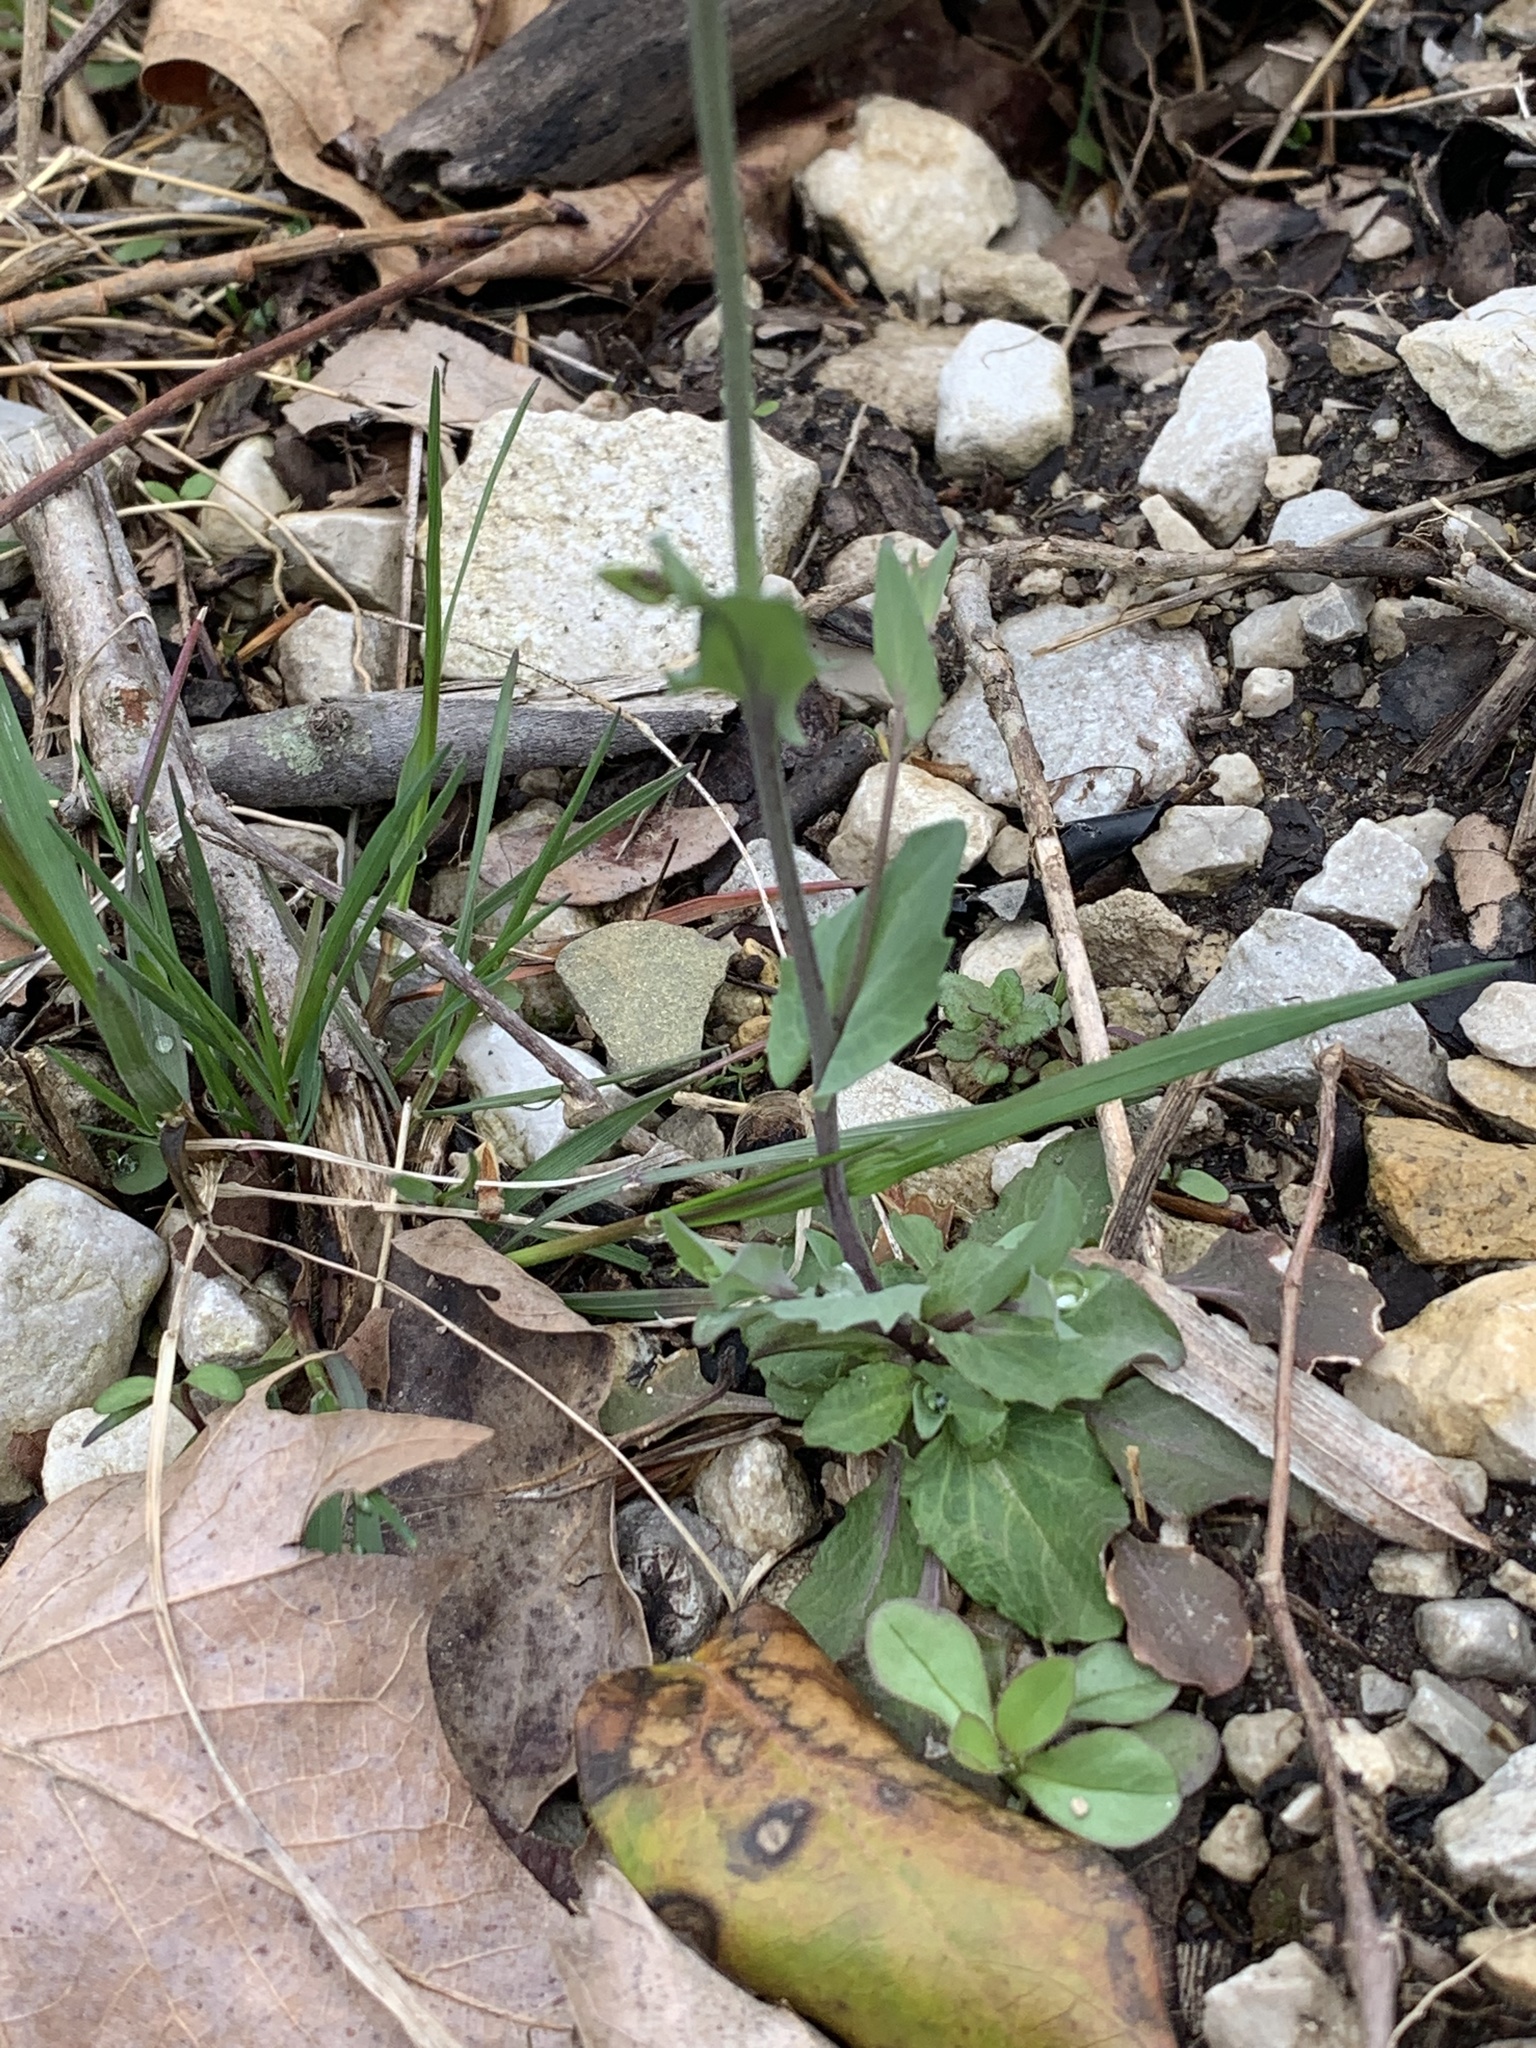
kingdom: Plantae
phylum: Tracheophyta
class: Magnoliopsida
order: Brassicales
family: Brassicaceae
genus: Noccaea
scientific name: Noccaea perfoliata
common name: Perfoliate pennycress
